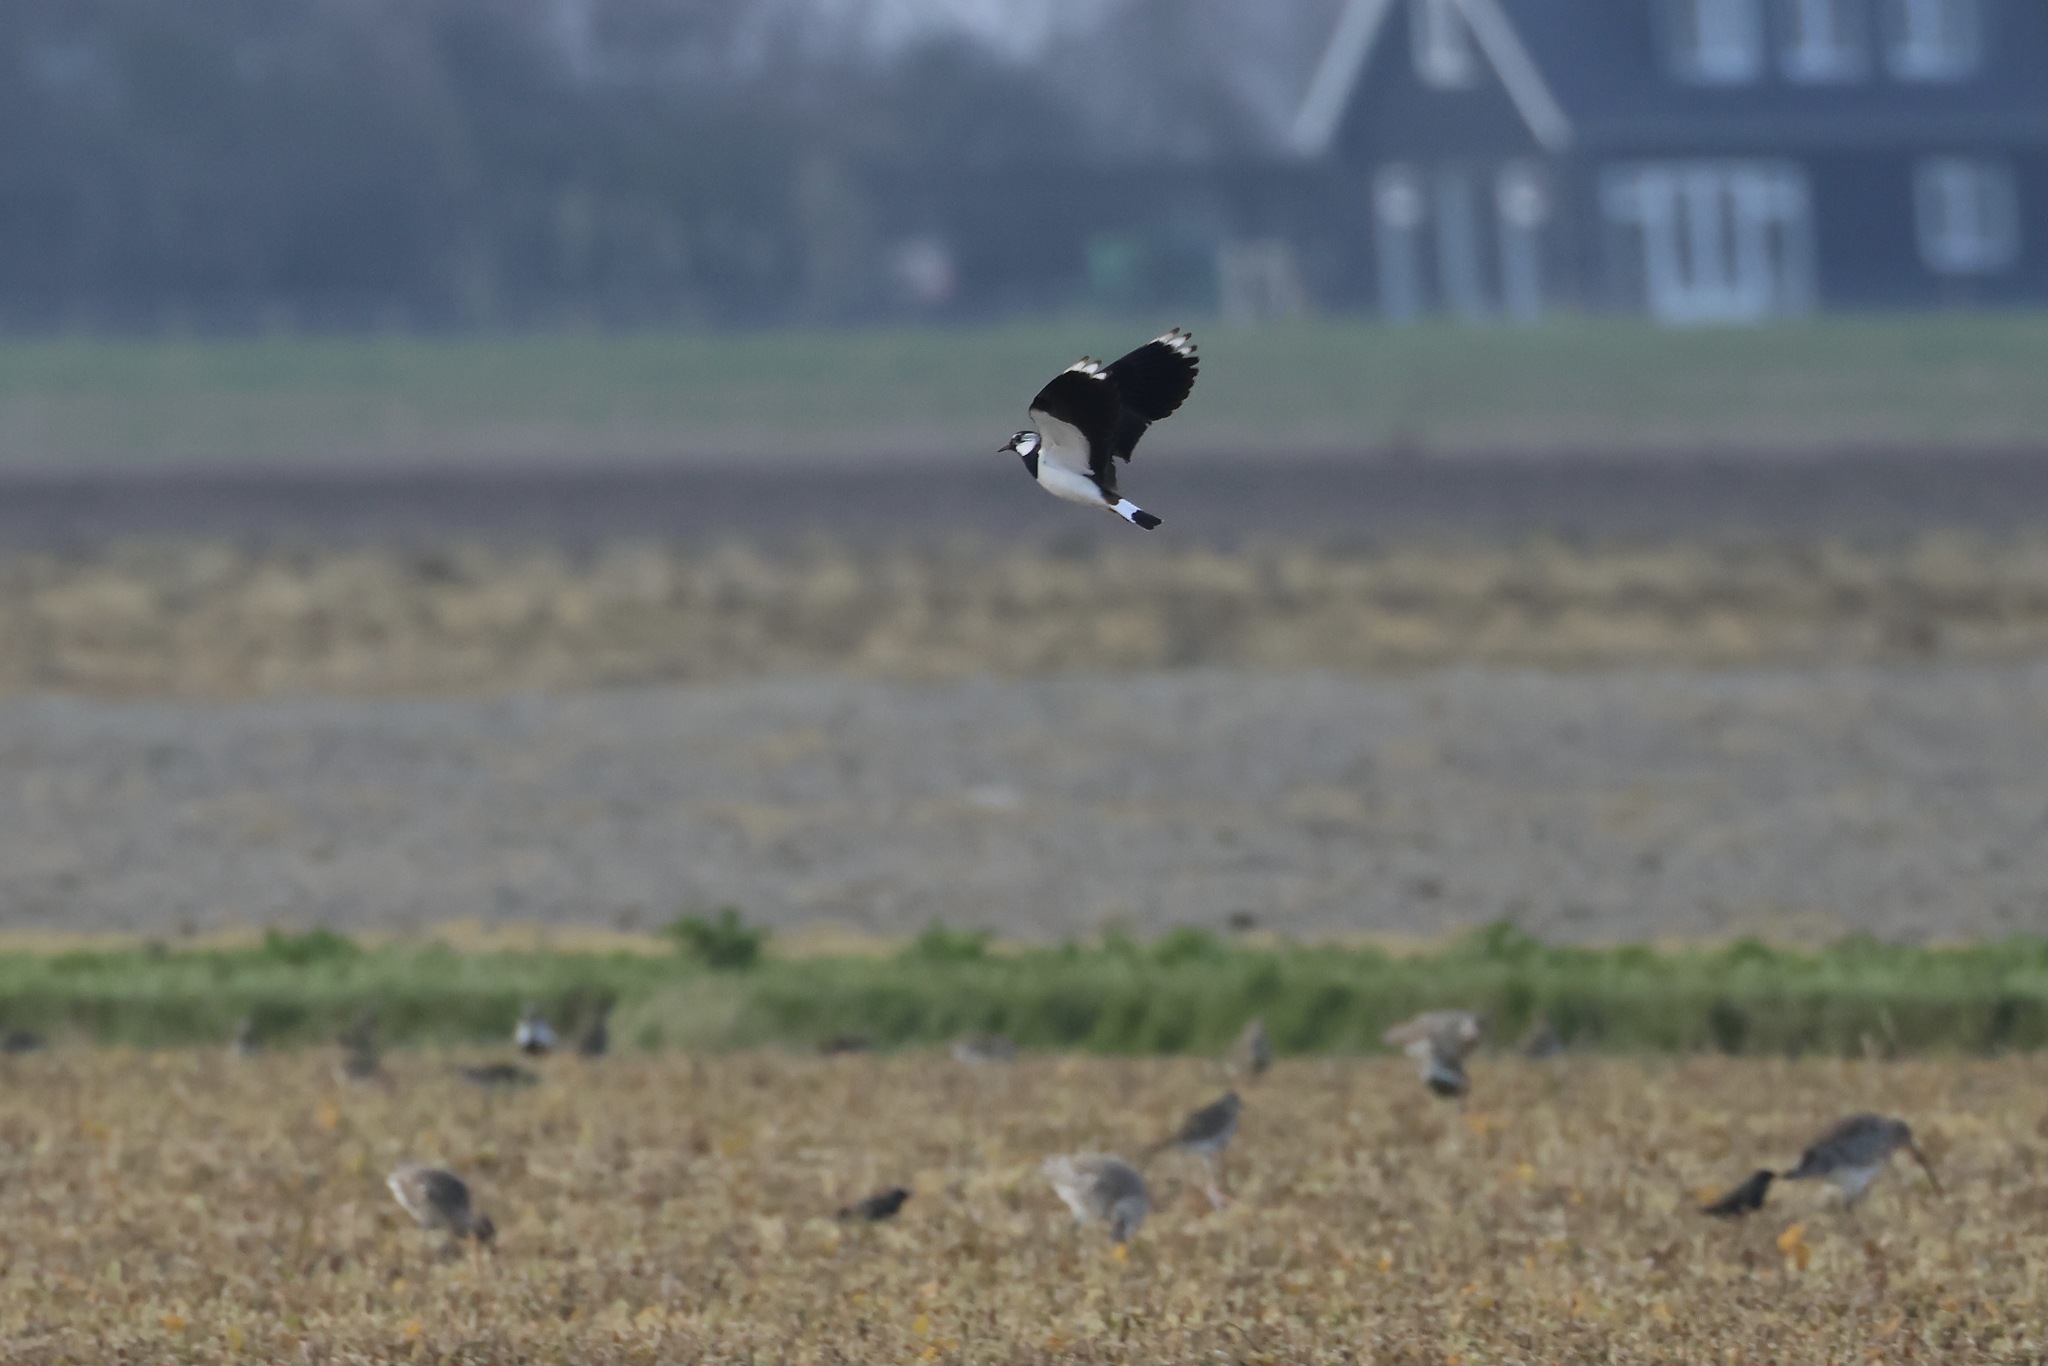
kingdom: Animalia
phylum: Chordata
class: Aves
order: Charadriiformes
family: Charadriidae
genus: Vanellus
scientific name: Vanellus vanellus
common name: Northern lapwing
